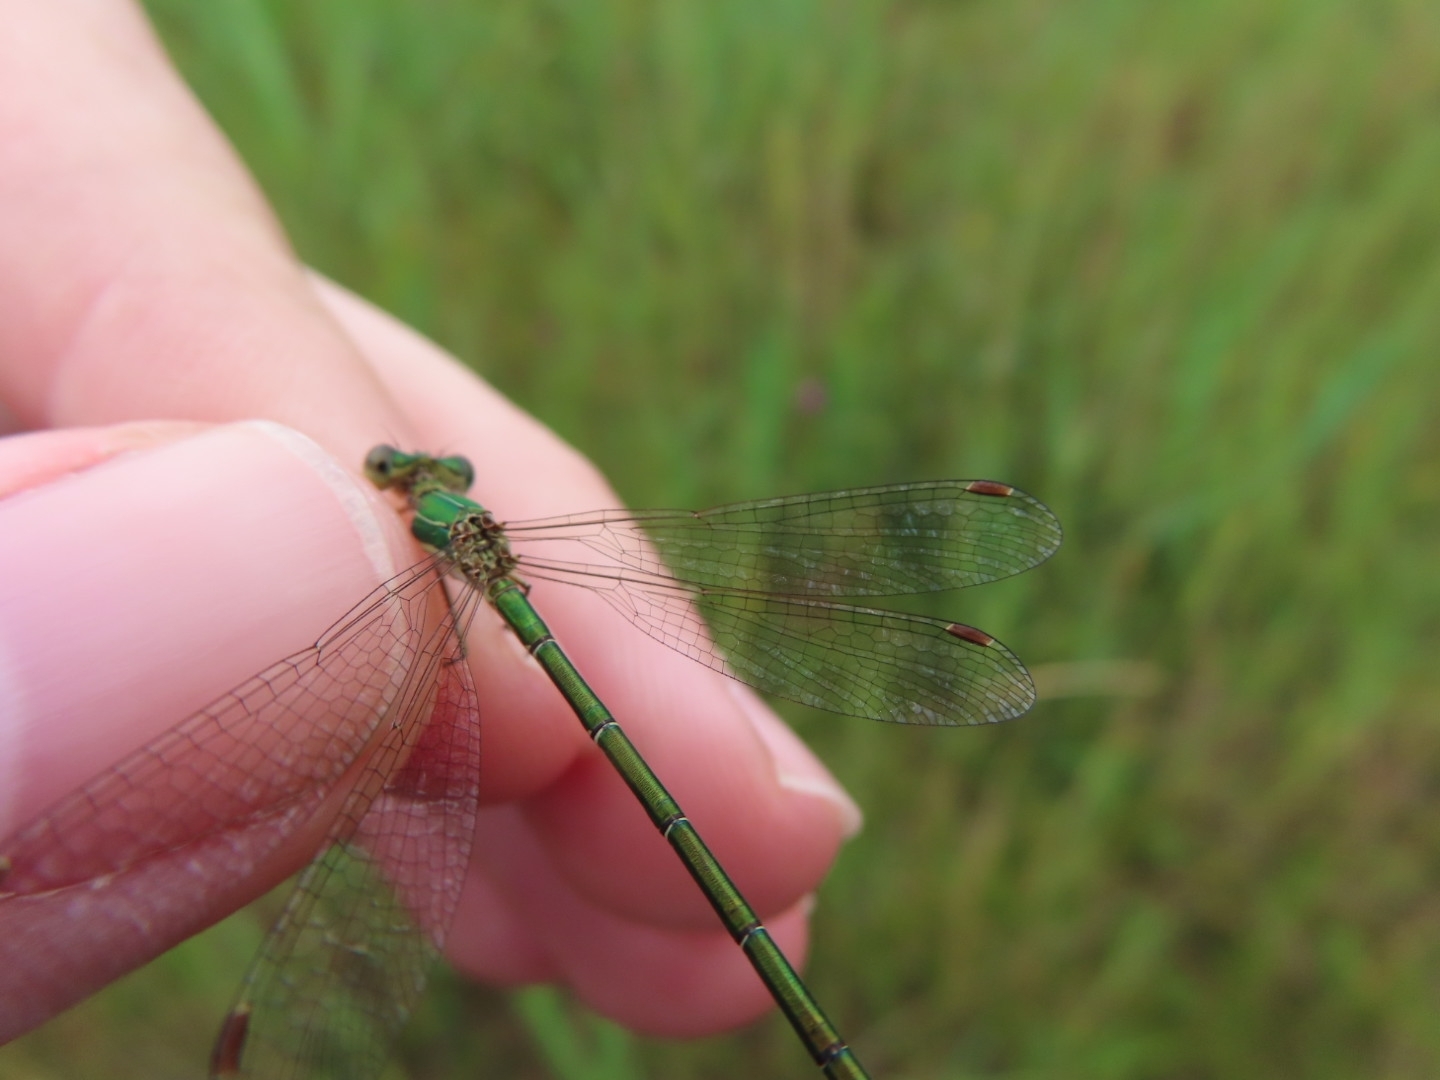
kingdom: Animalia
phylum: Arthropoda
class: Insecta
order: Odonata
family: Lestidae
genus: Lestes
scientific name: Lestes virens
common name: Small emerald spreadwing
